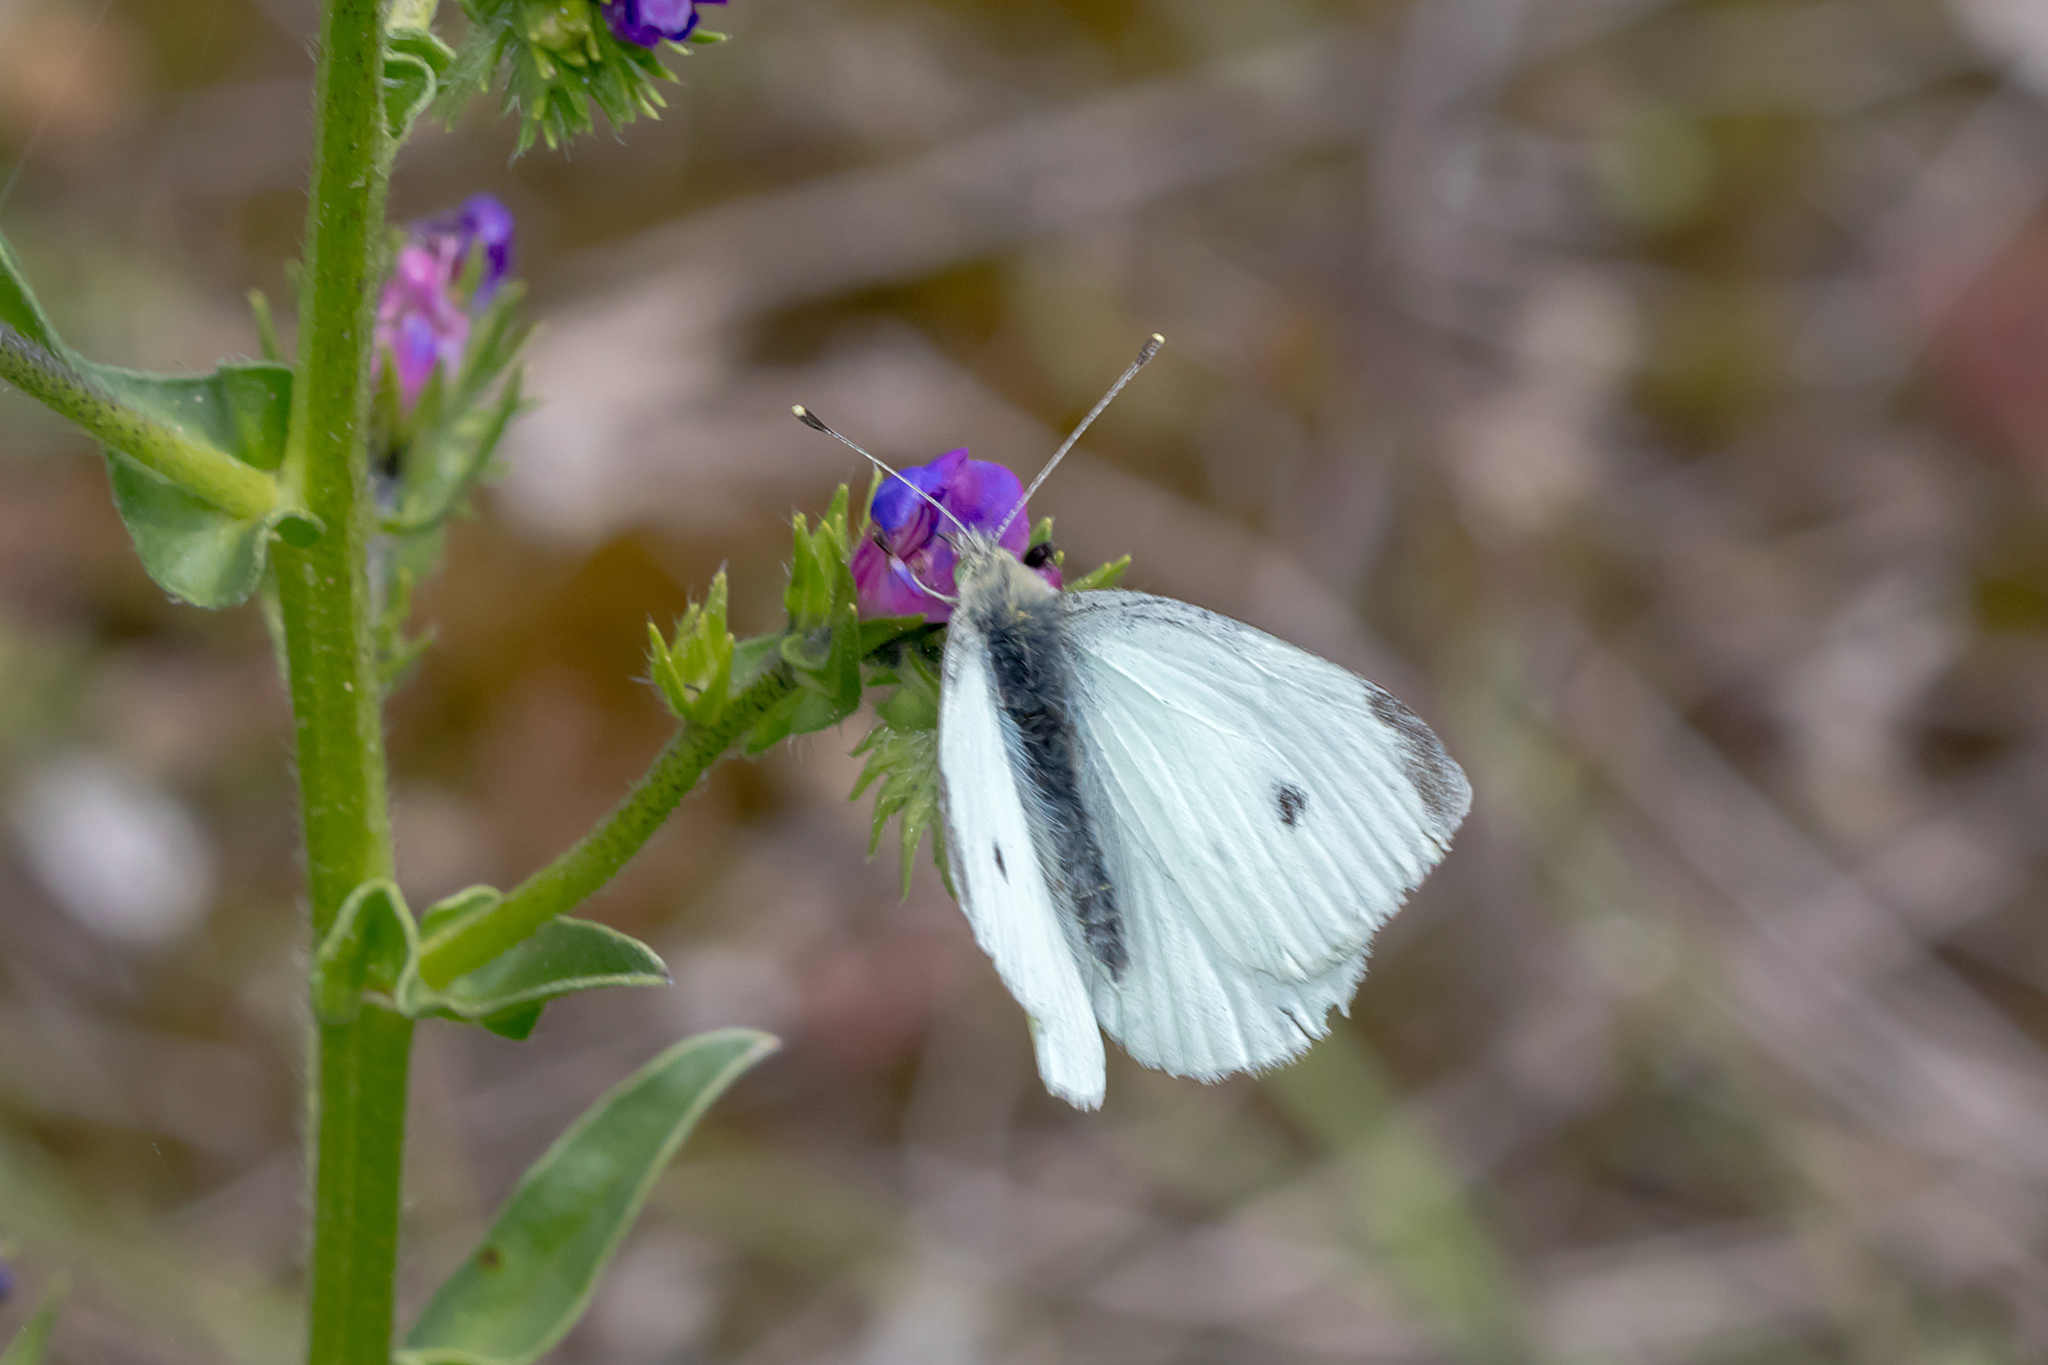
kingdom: Animalia
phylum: Arthropoda
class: Insecta
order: Lepidoptera
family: Pieridae
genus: Pieris
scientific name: Pieris rapae
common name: Small white
